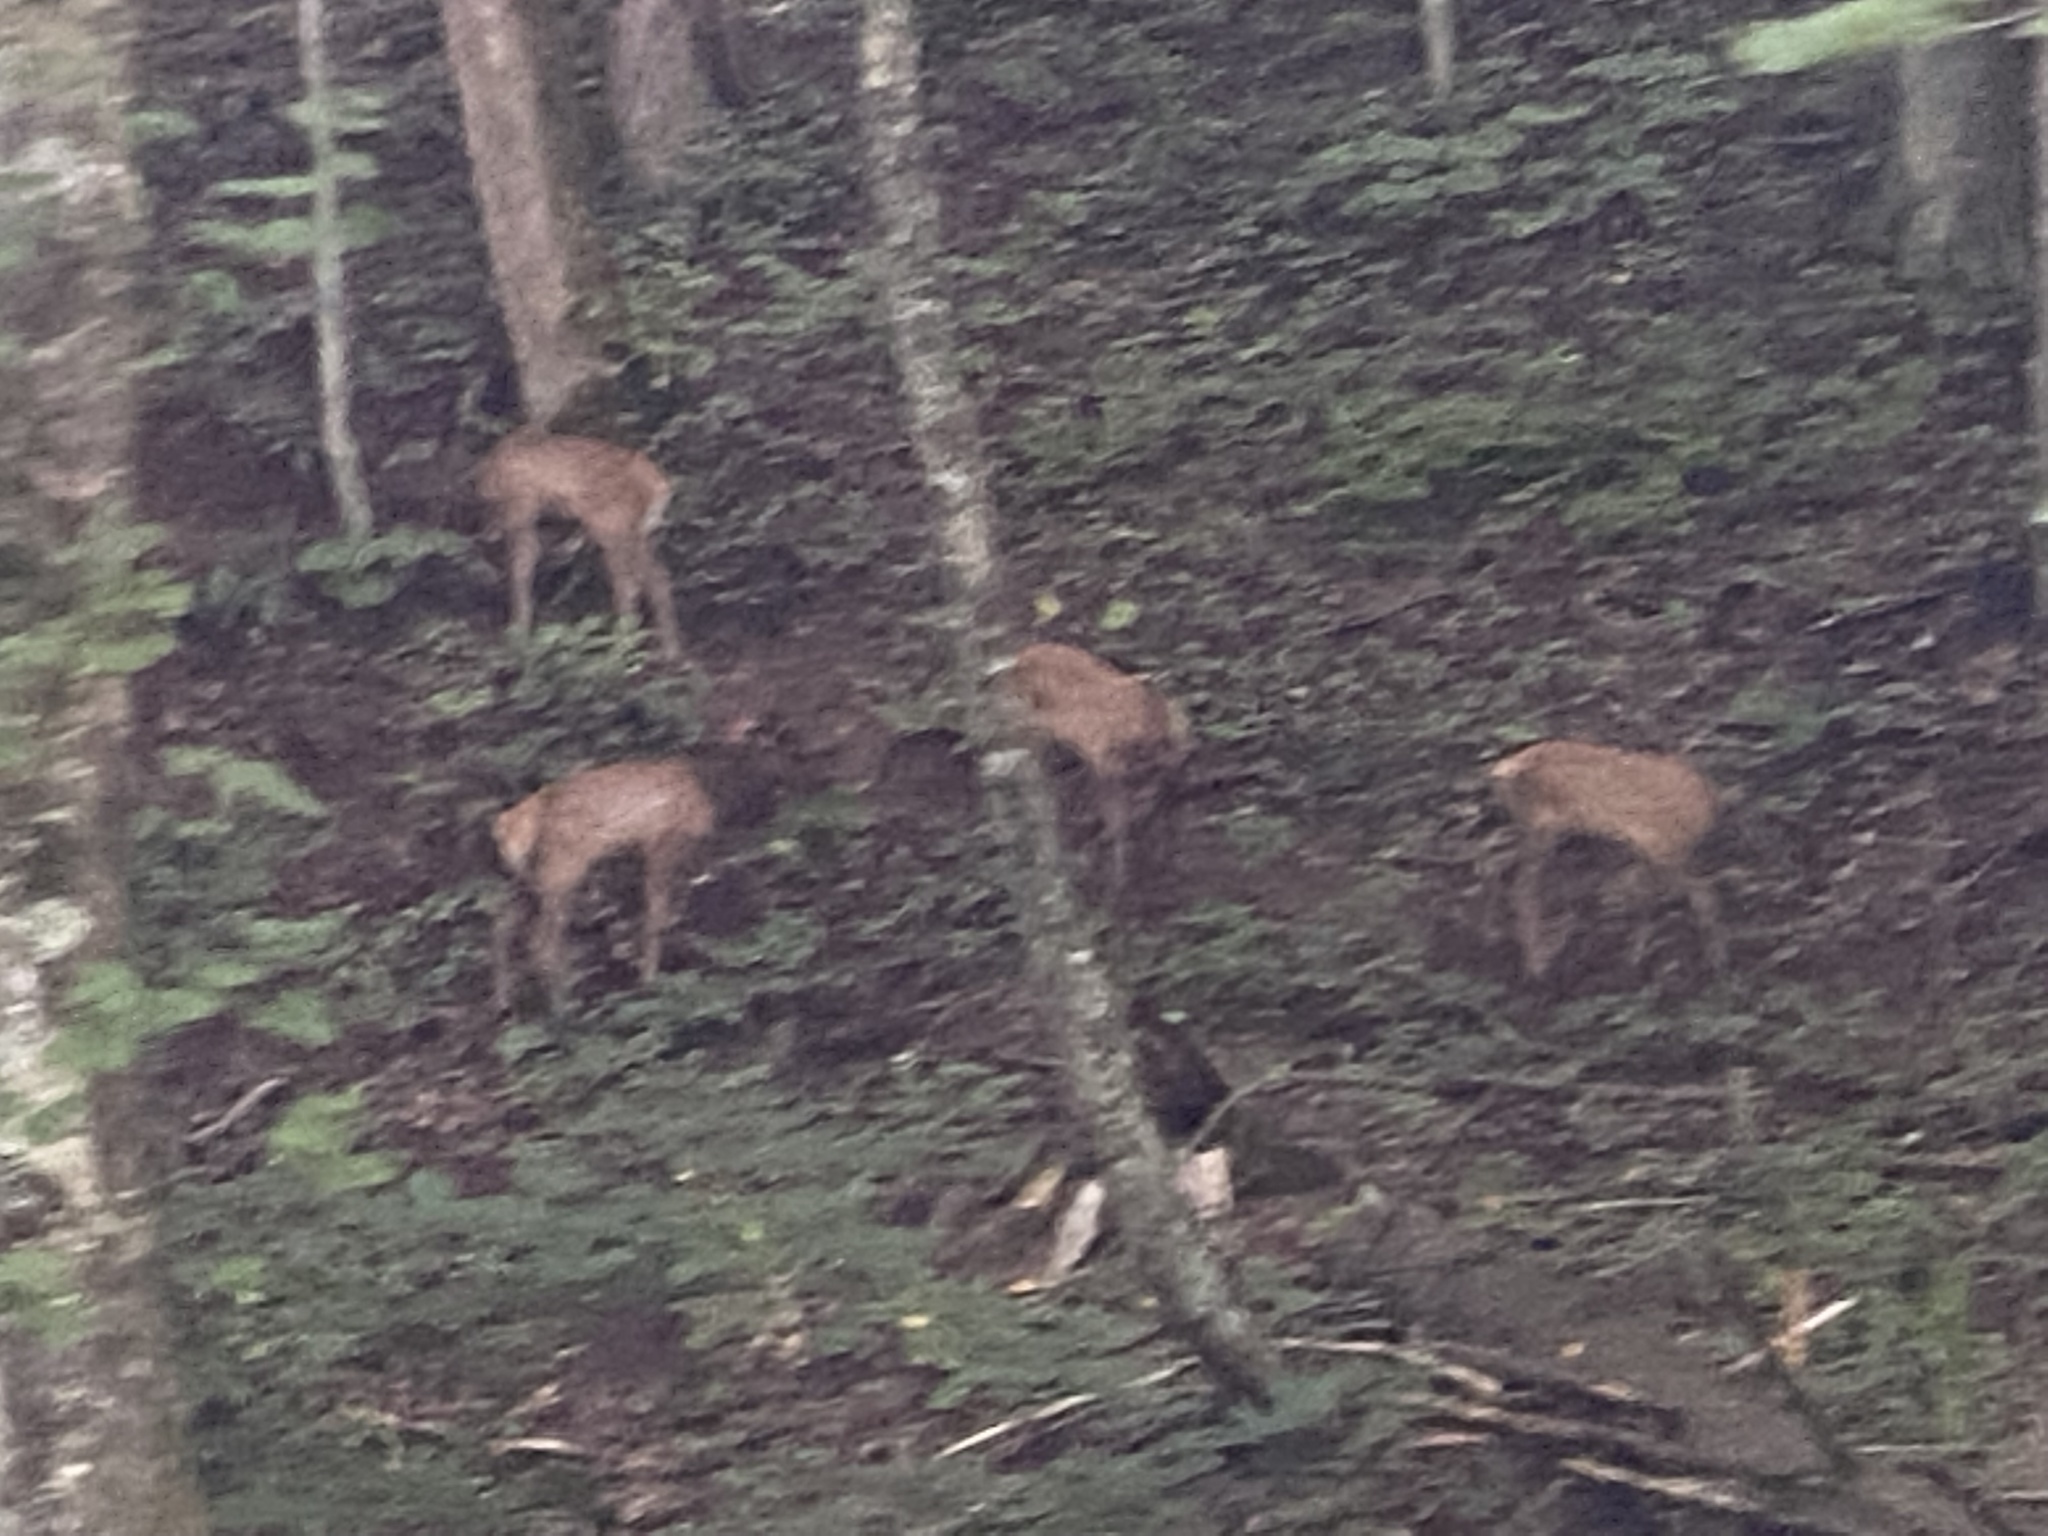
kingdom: Animalia
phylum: Chordata
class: Mammalia
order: Artiodactyla
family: Cervidae
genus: Cervus
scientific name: Cervus elaphus
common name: Red deer
